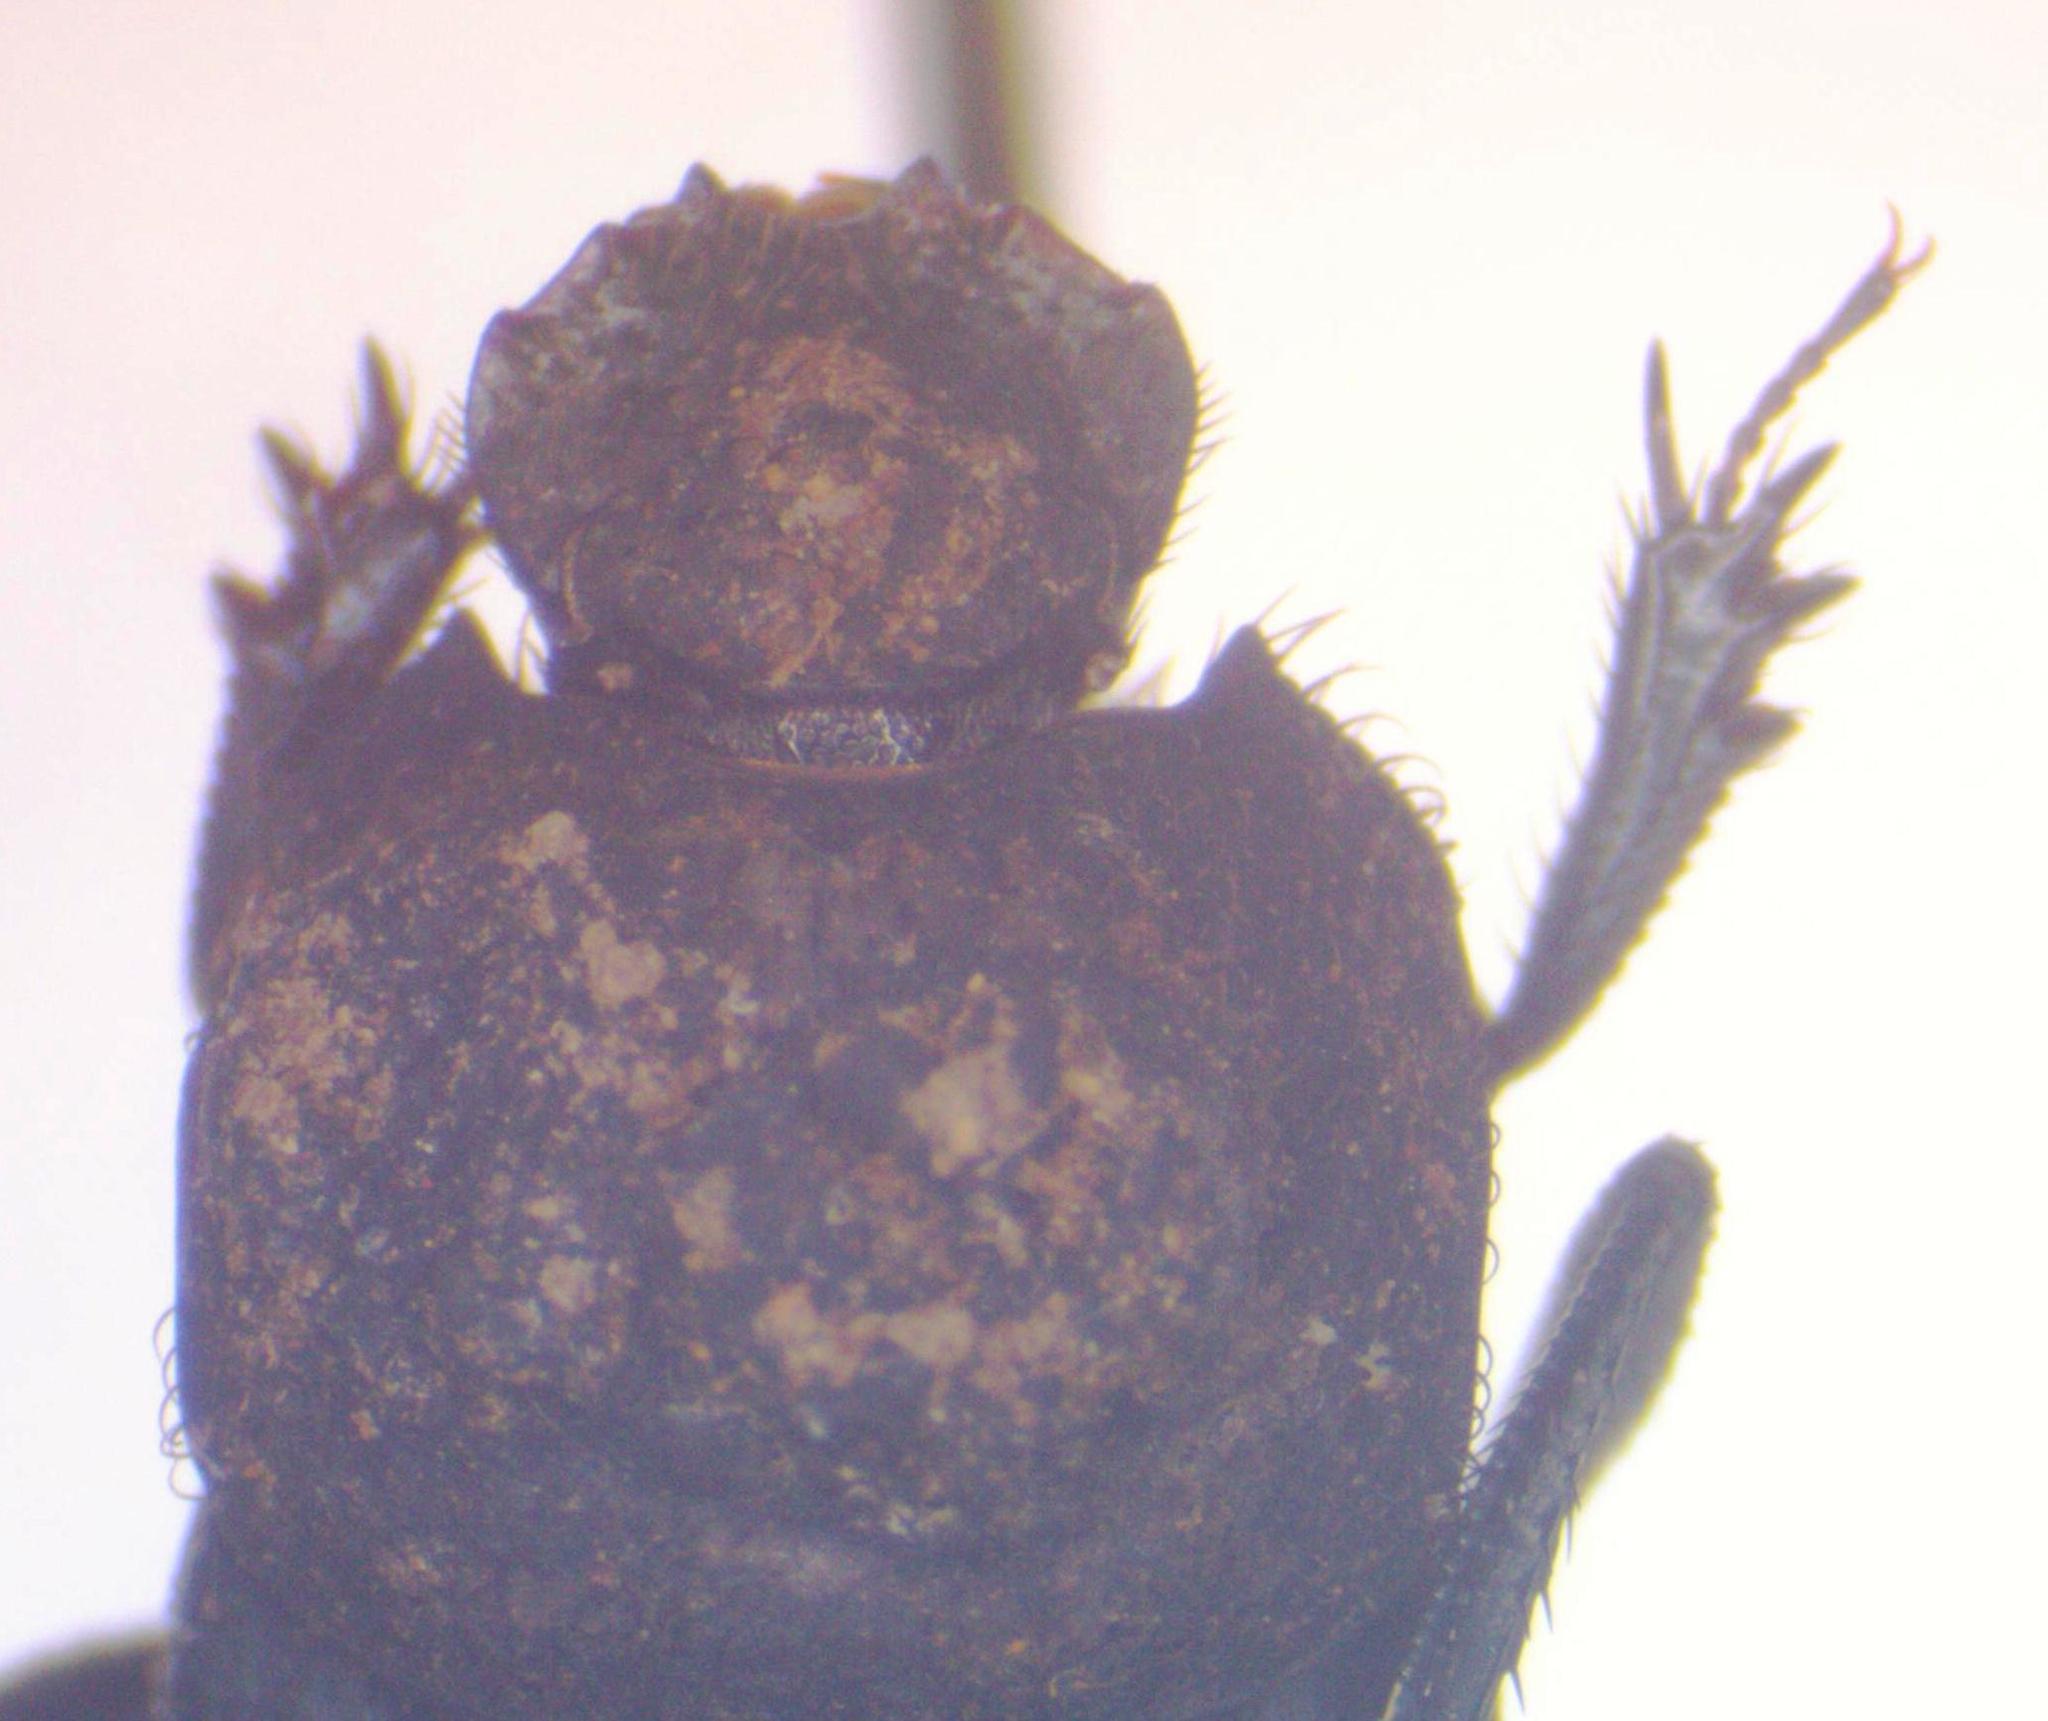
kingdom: Animalia
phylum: Arthropoda
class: Insecta
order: Coleoptera
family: Scarabaeidae
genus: Sisyphus
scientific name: Sisyphus crispatus
